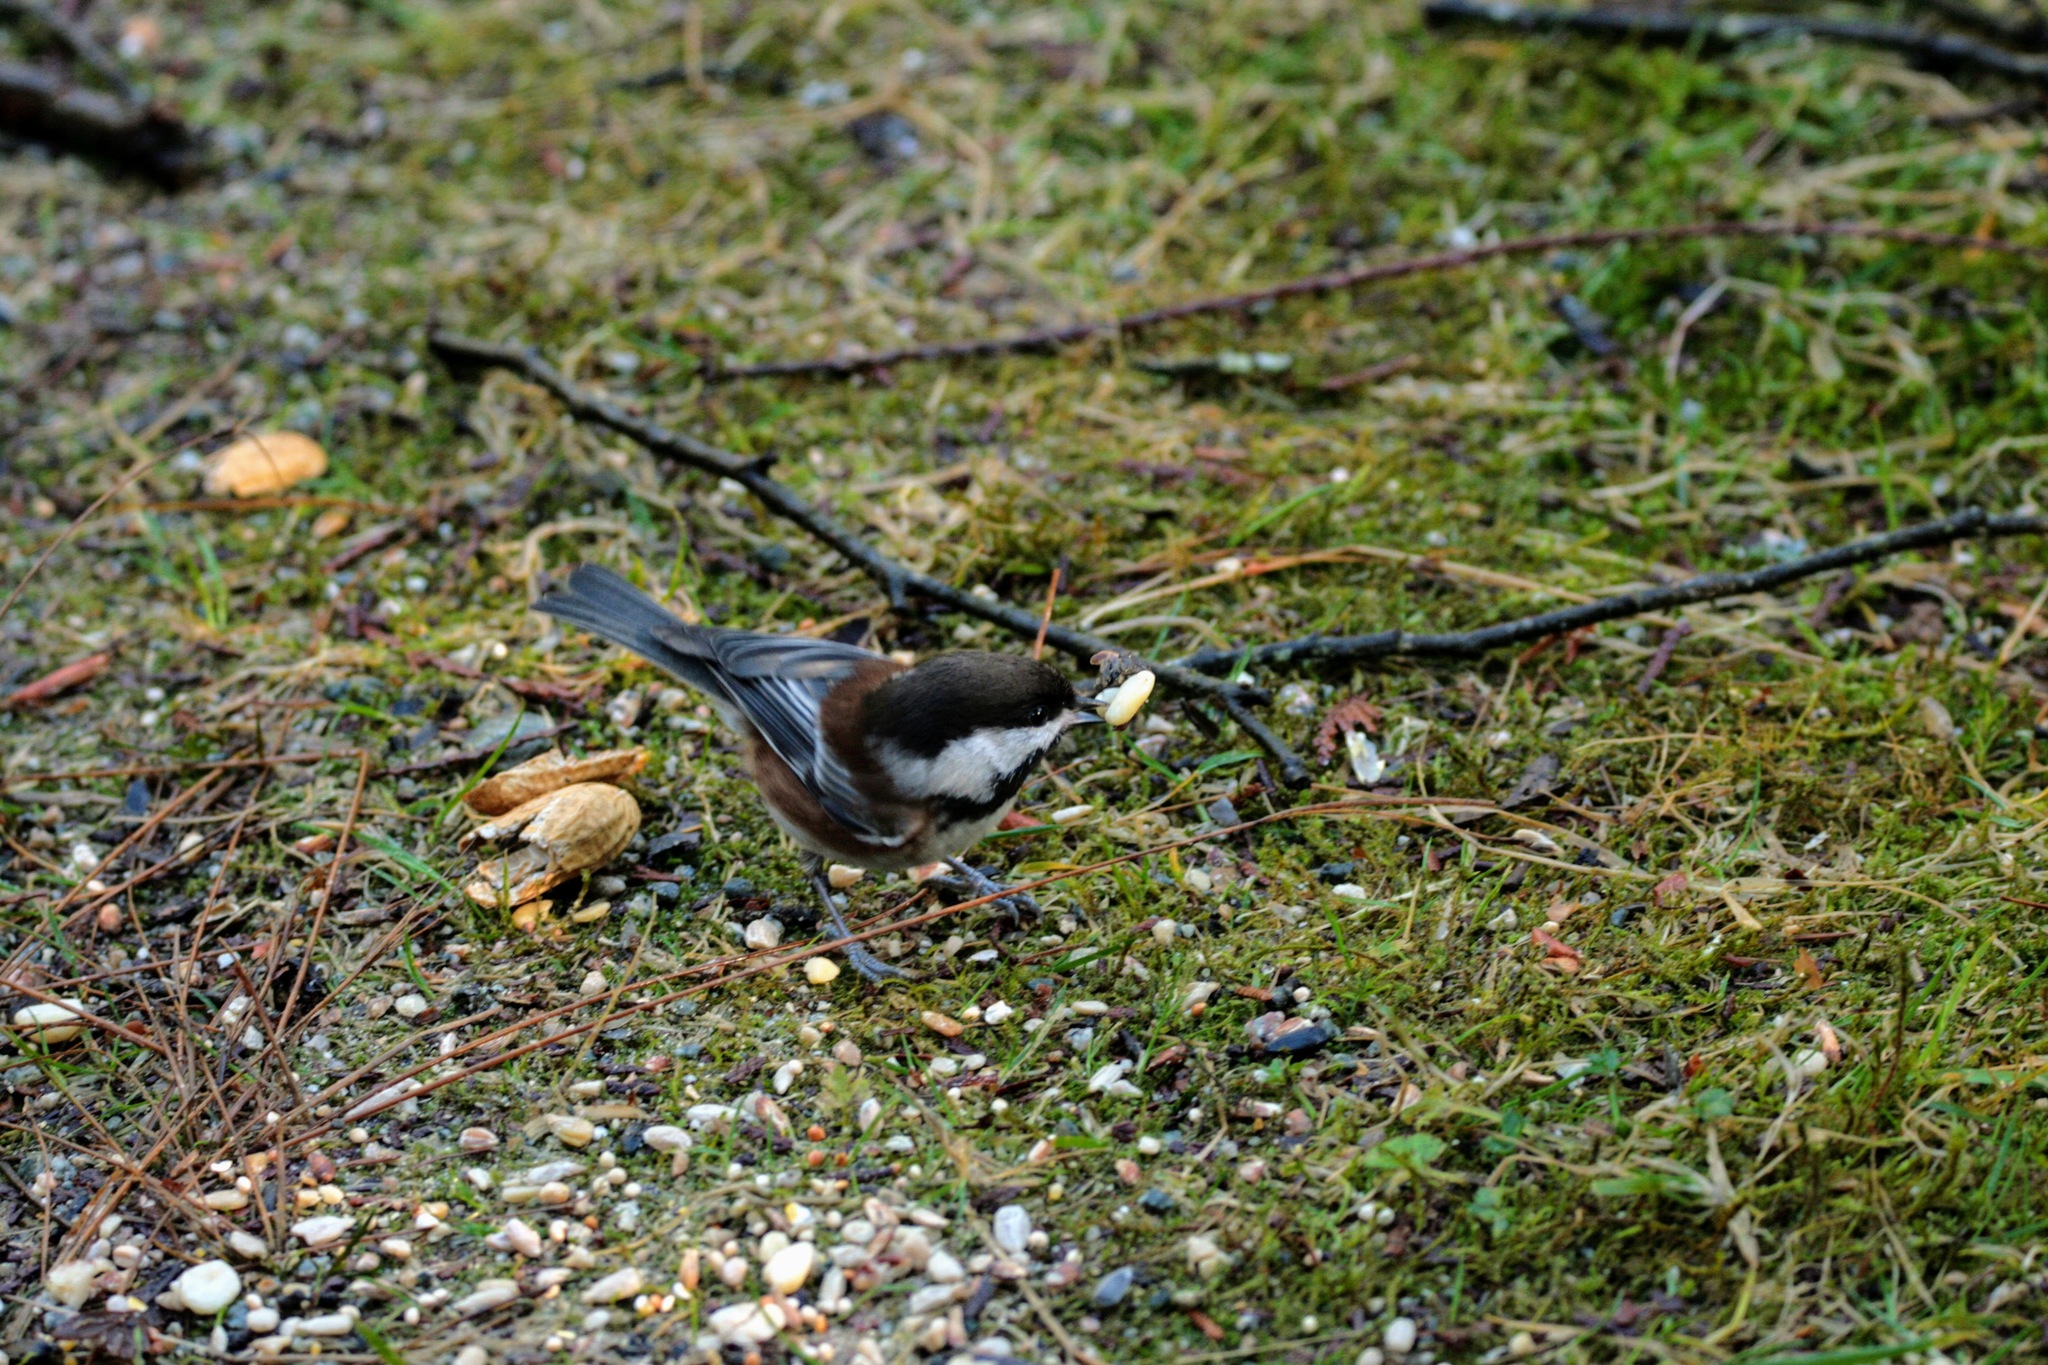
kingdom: Animalia
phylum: Chordata
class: Aves
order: Passeriformes
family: Paridae
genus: Poecile
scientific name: Poecile rufescens
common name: Chestnut-backed chickadee
